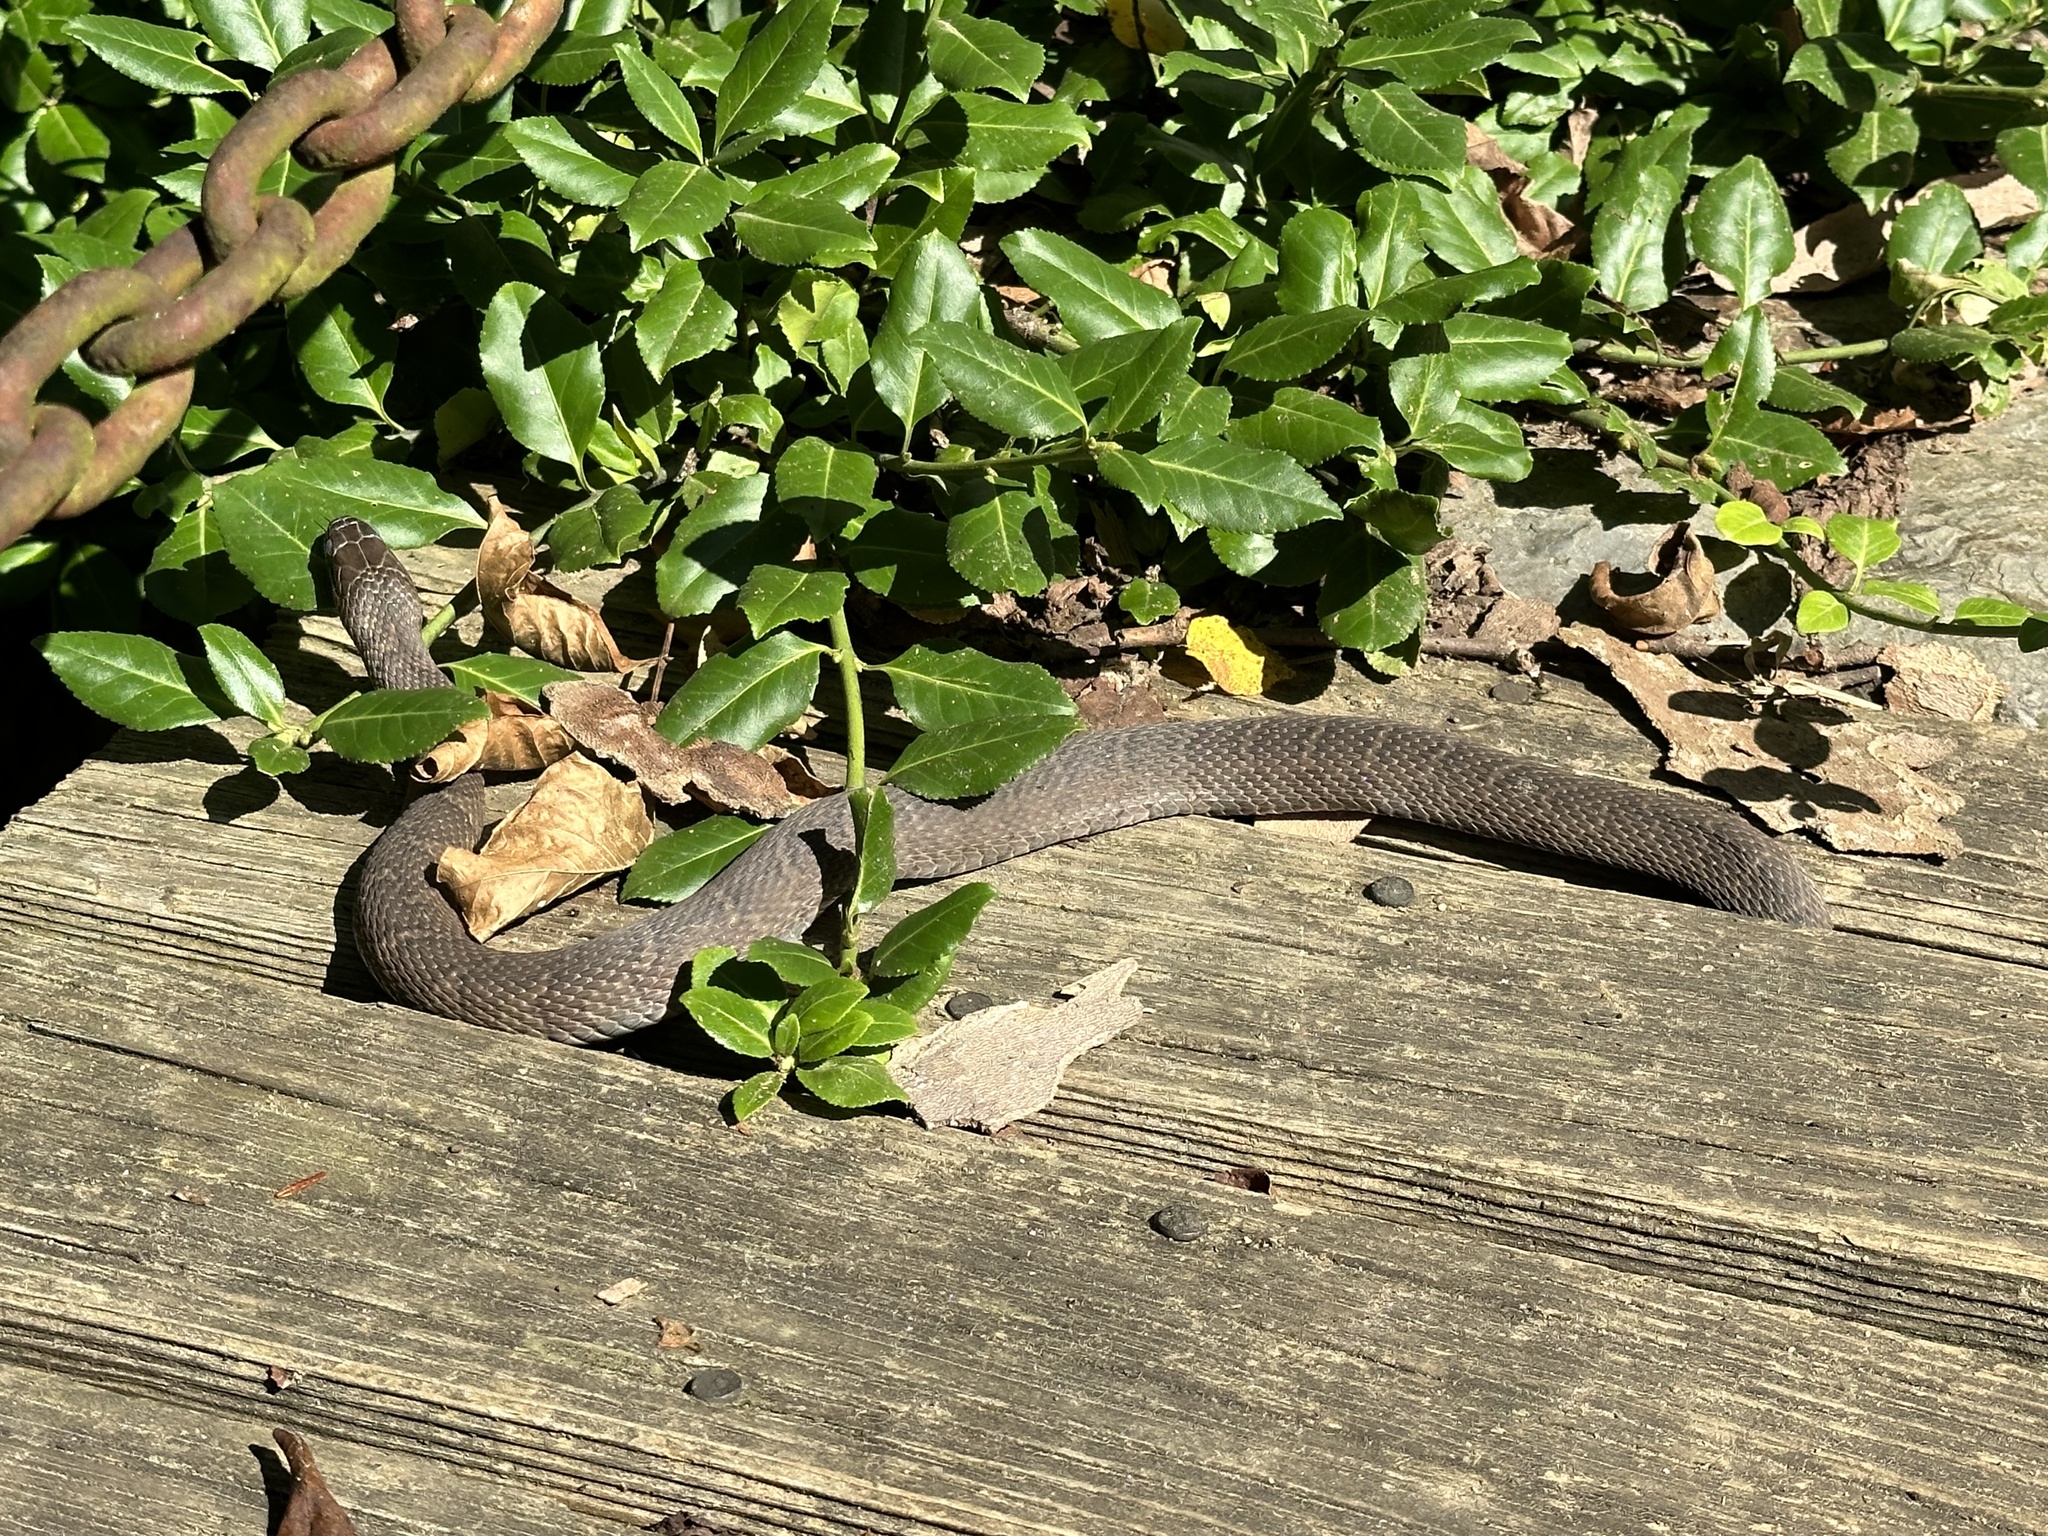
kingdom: Animalia
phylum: Chordata
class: Squamata
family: Colubridae
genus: Nerodia
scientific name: Nerodia sipedon
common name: Northern water snake
